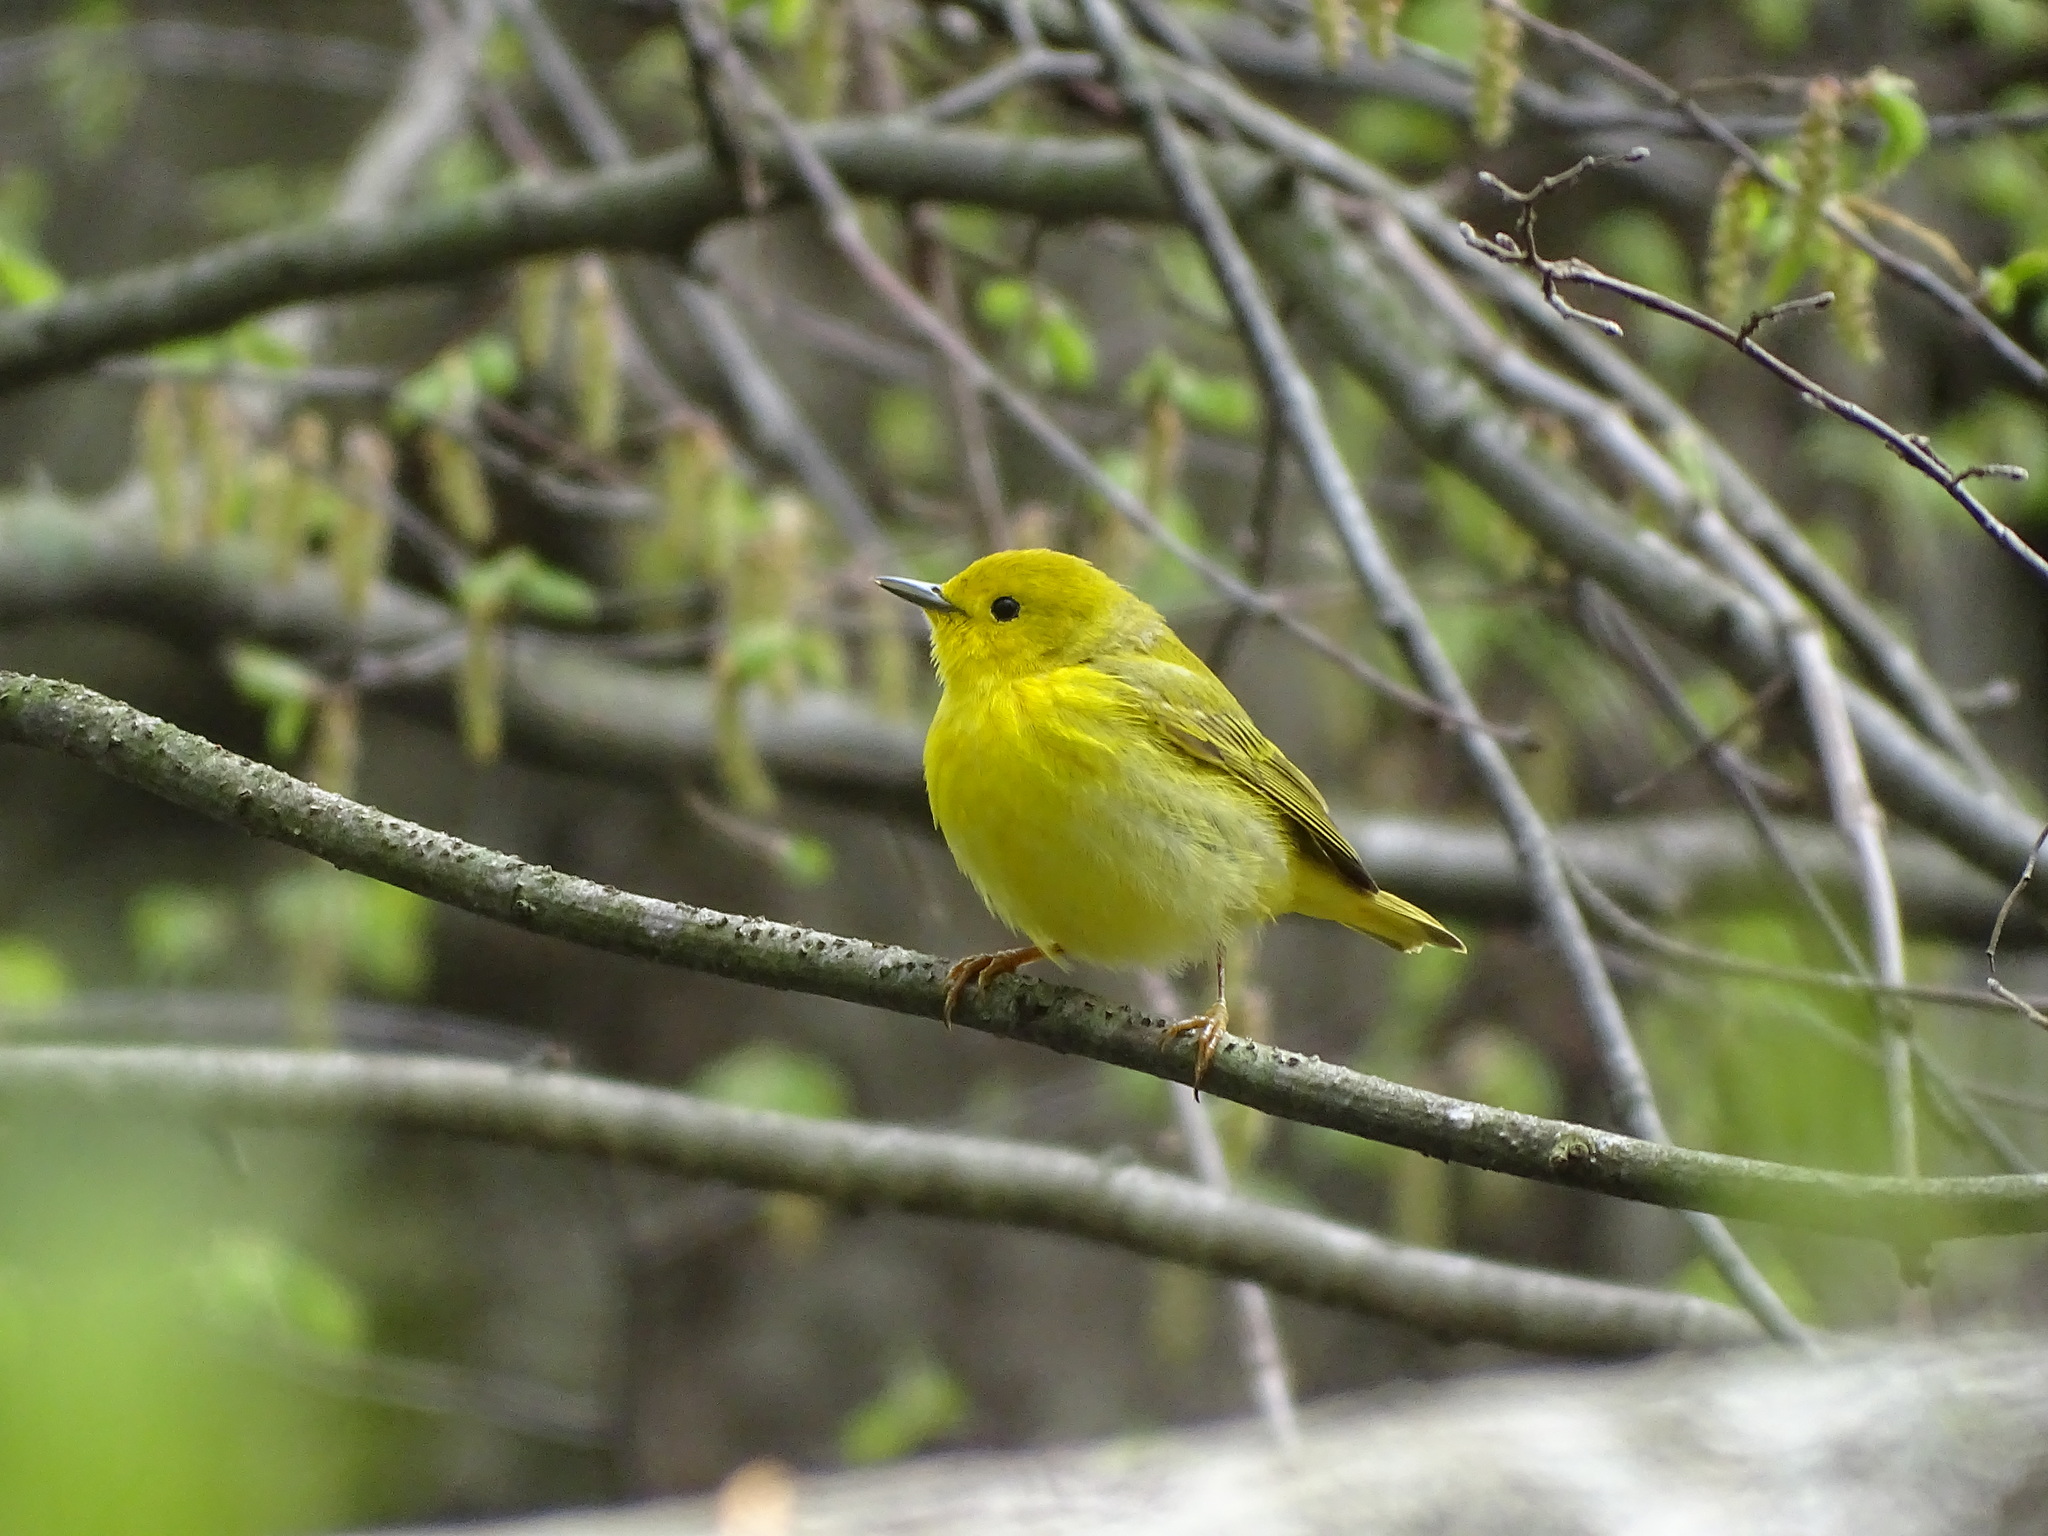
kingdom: Animalia
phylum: Chordata
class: Aves
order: Passeriformes
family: Parulidae
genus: Setophaga
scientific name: Setophaga petechia
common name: Yellow warbler
